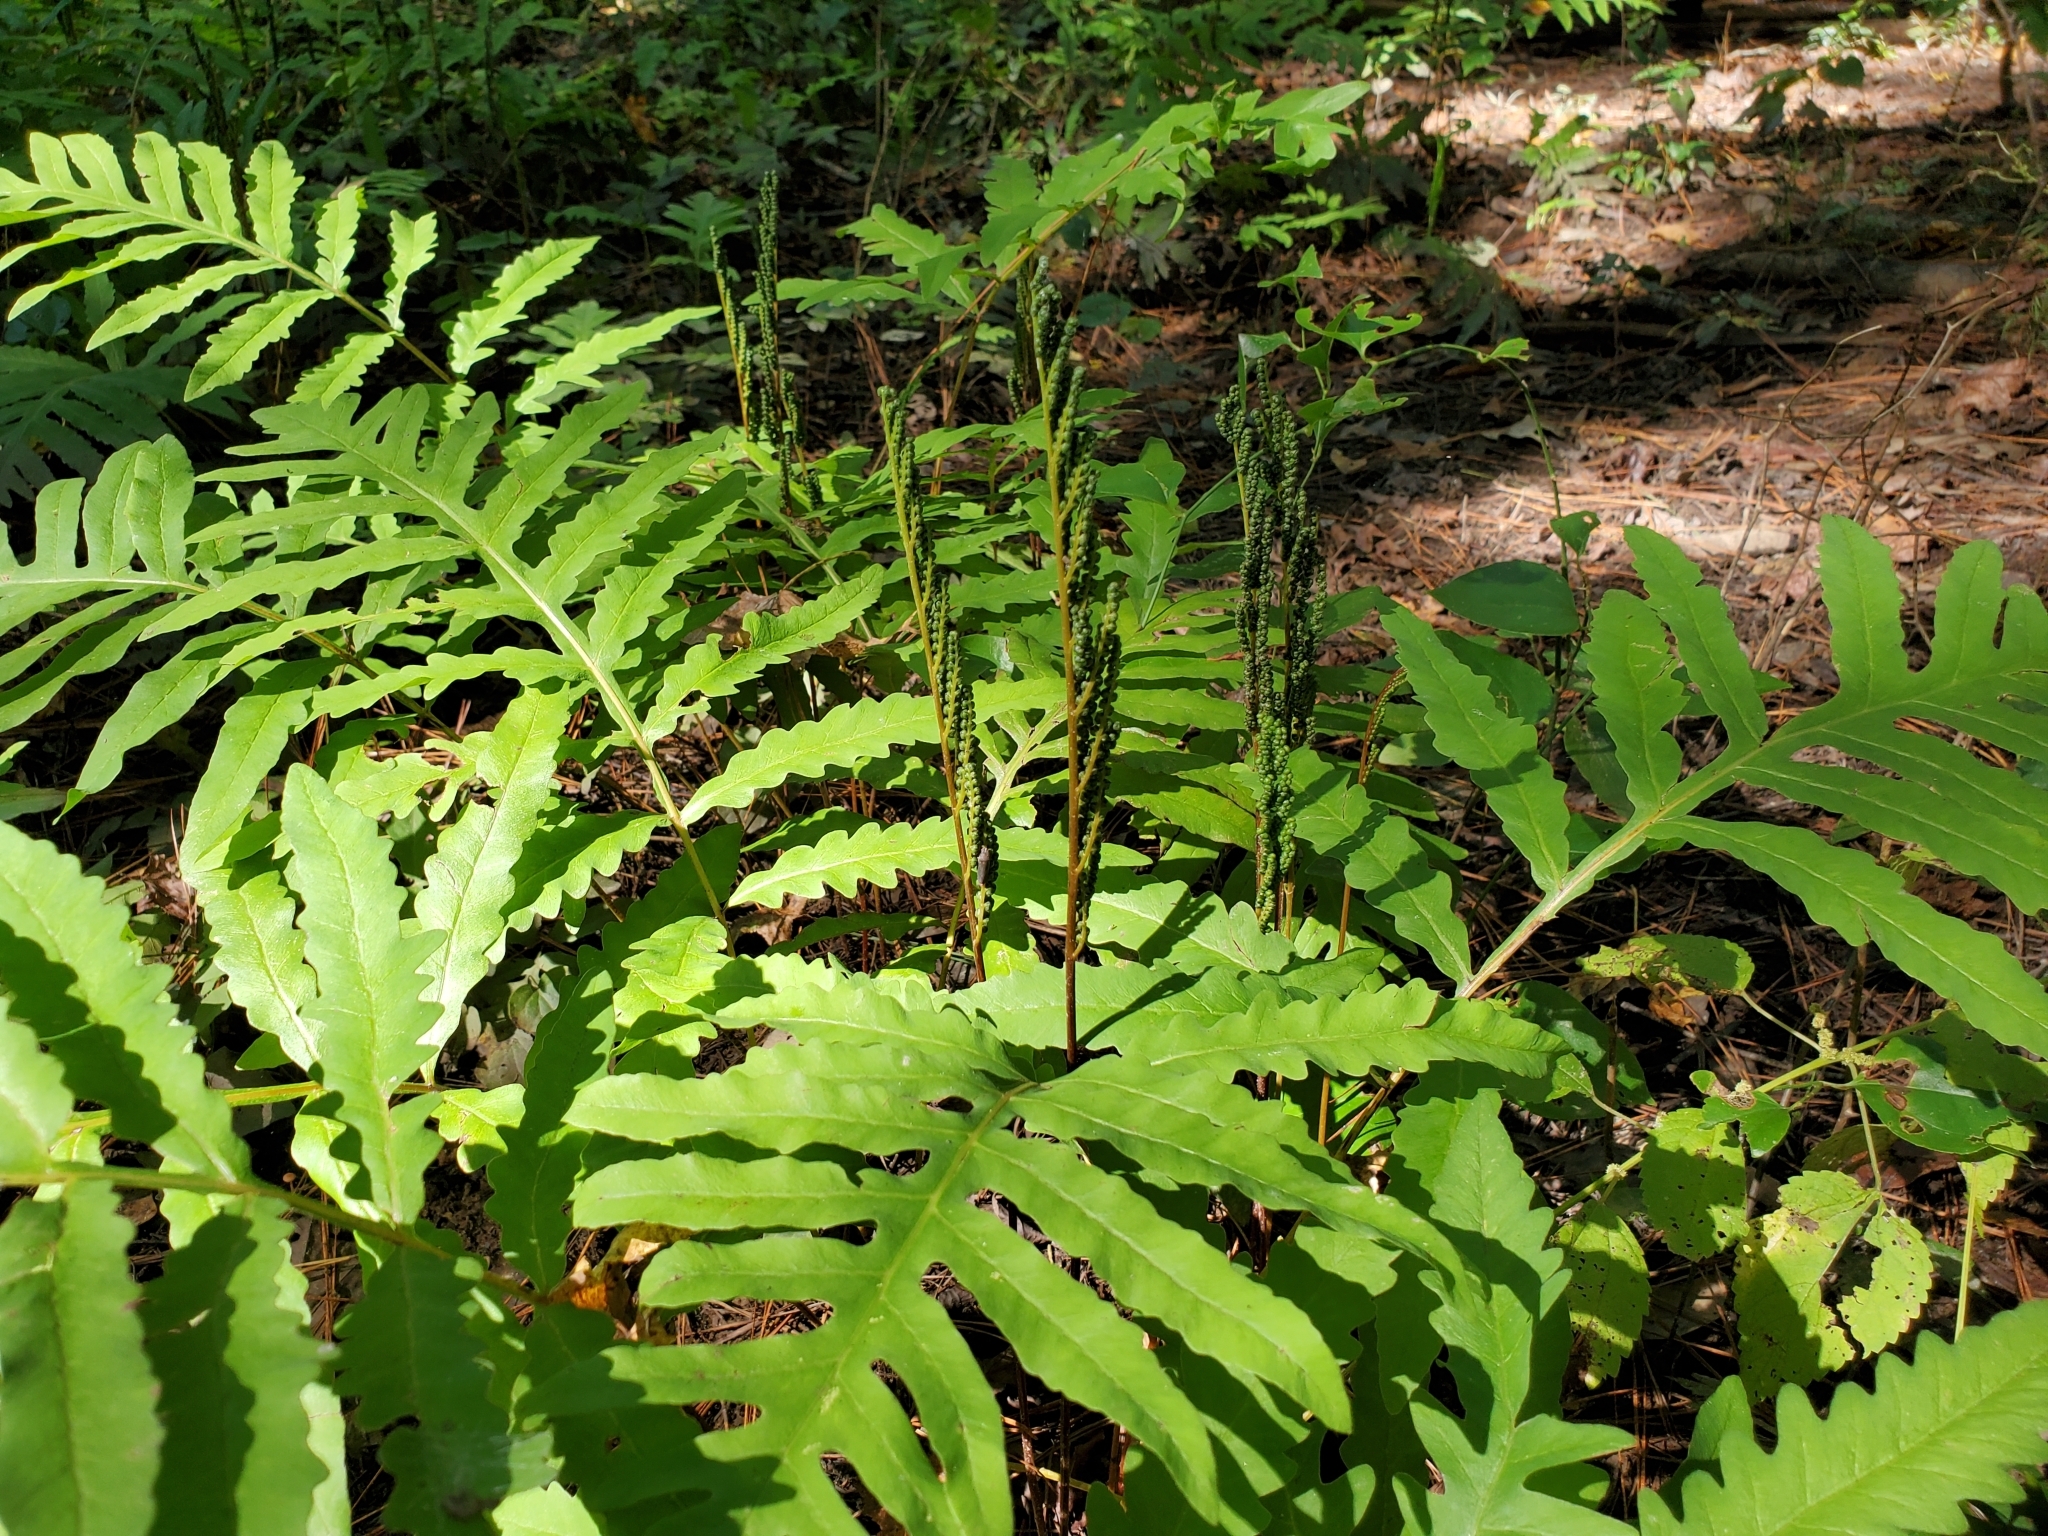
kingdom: Plantae
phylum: Tracheophyta
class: Polypodiopsida
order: Polypodiales
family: Onocleaceae
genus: Onoclea
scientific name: Onoclea sensibilis
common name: Sensitive fern
